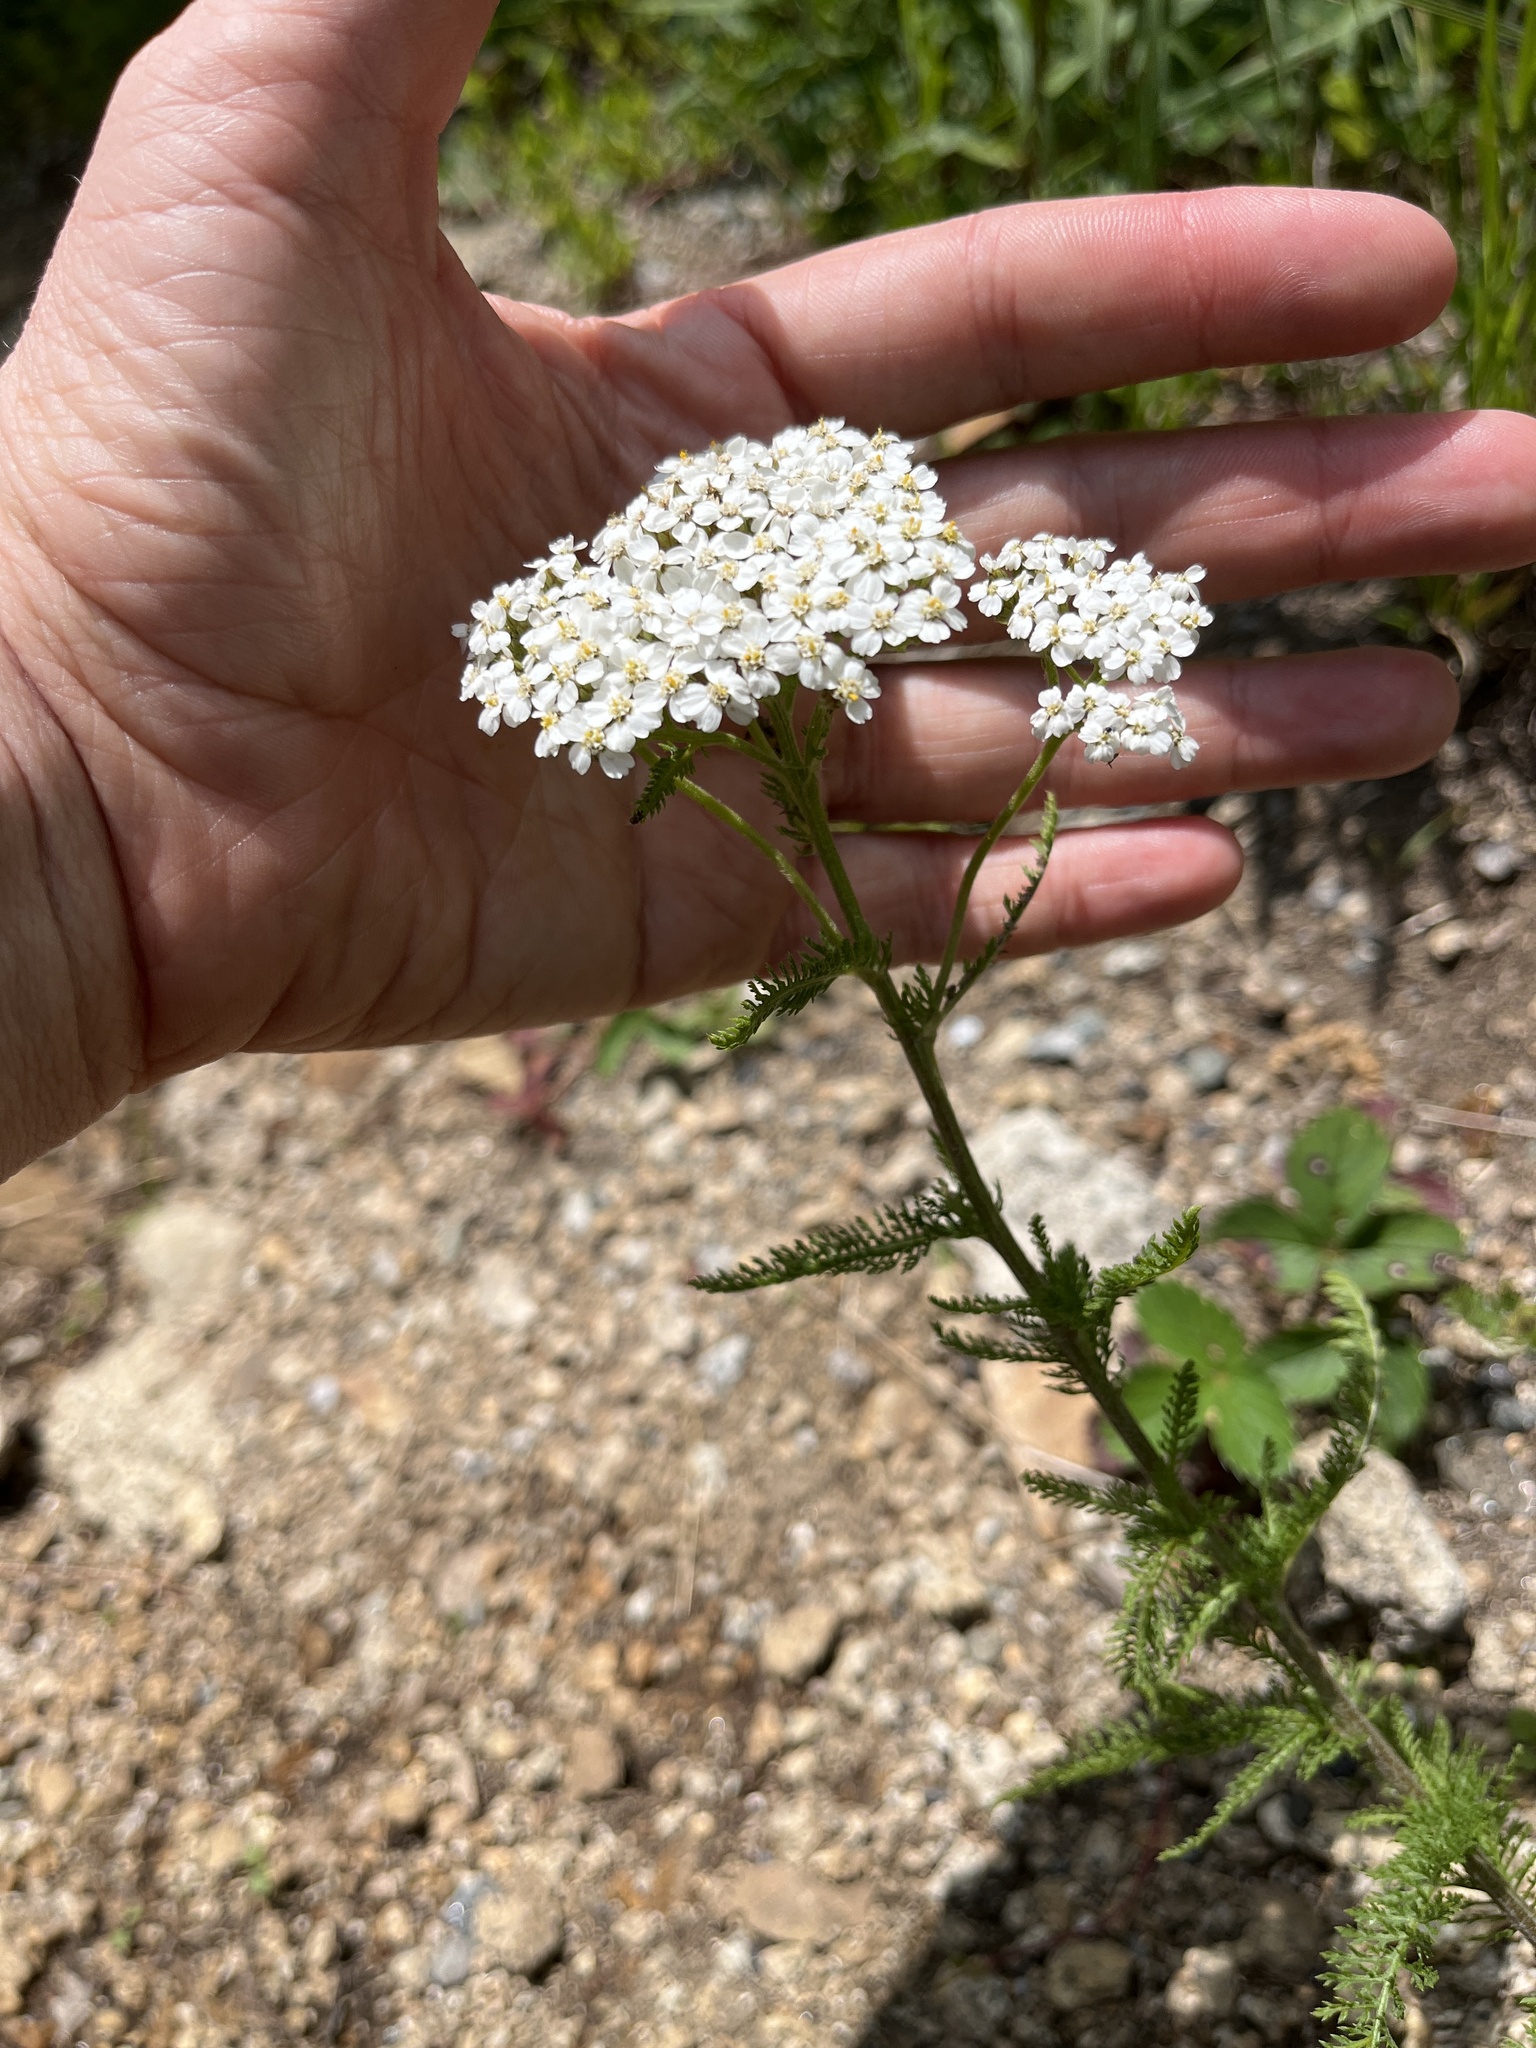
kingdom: Plantae
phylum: Tracheophyta
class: Magnoliopsida
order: Asterales
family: Asteraceae
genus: Achillea
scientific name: Achillea millefolium
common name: Yarrow
